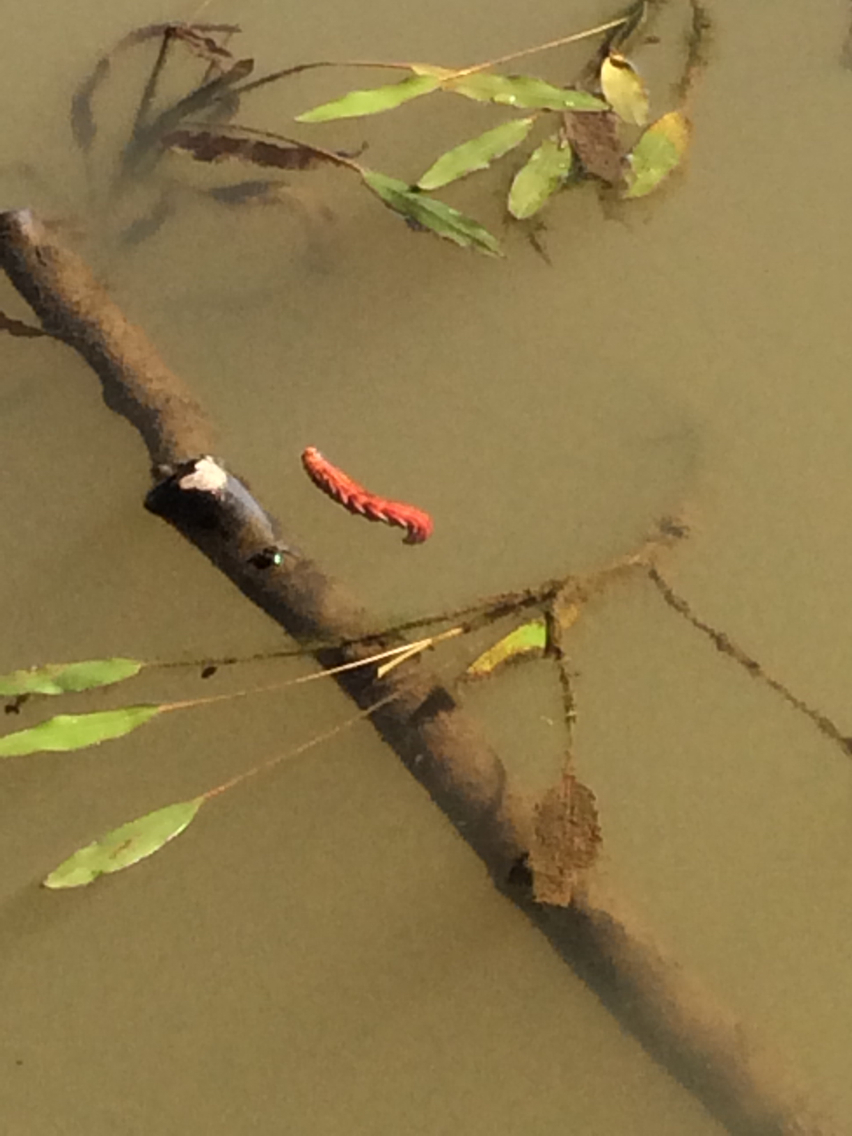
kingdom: Animalia
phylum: Arthropoda
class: Insecta
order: Lepidoptera
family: Sphingidae
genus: Eumorpha
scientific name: Eumorpha fasciatus
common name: Banded sphinx
